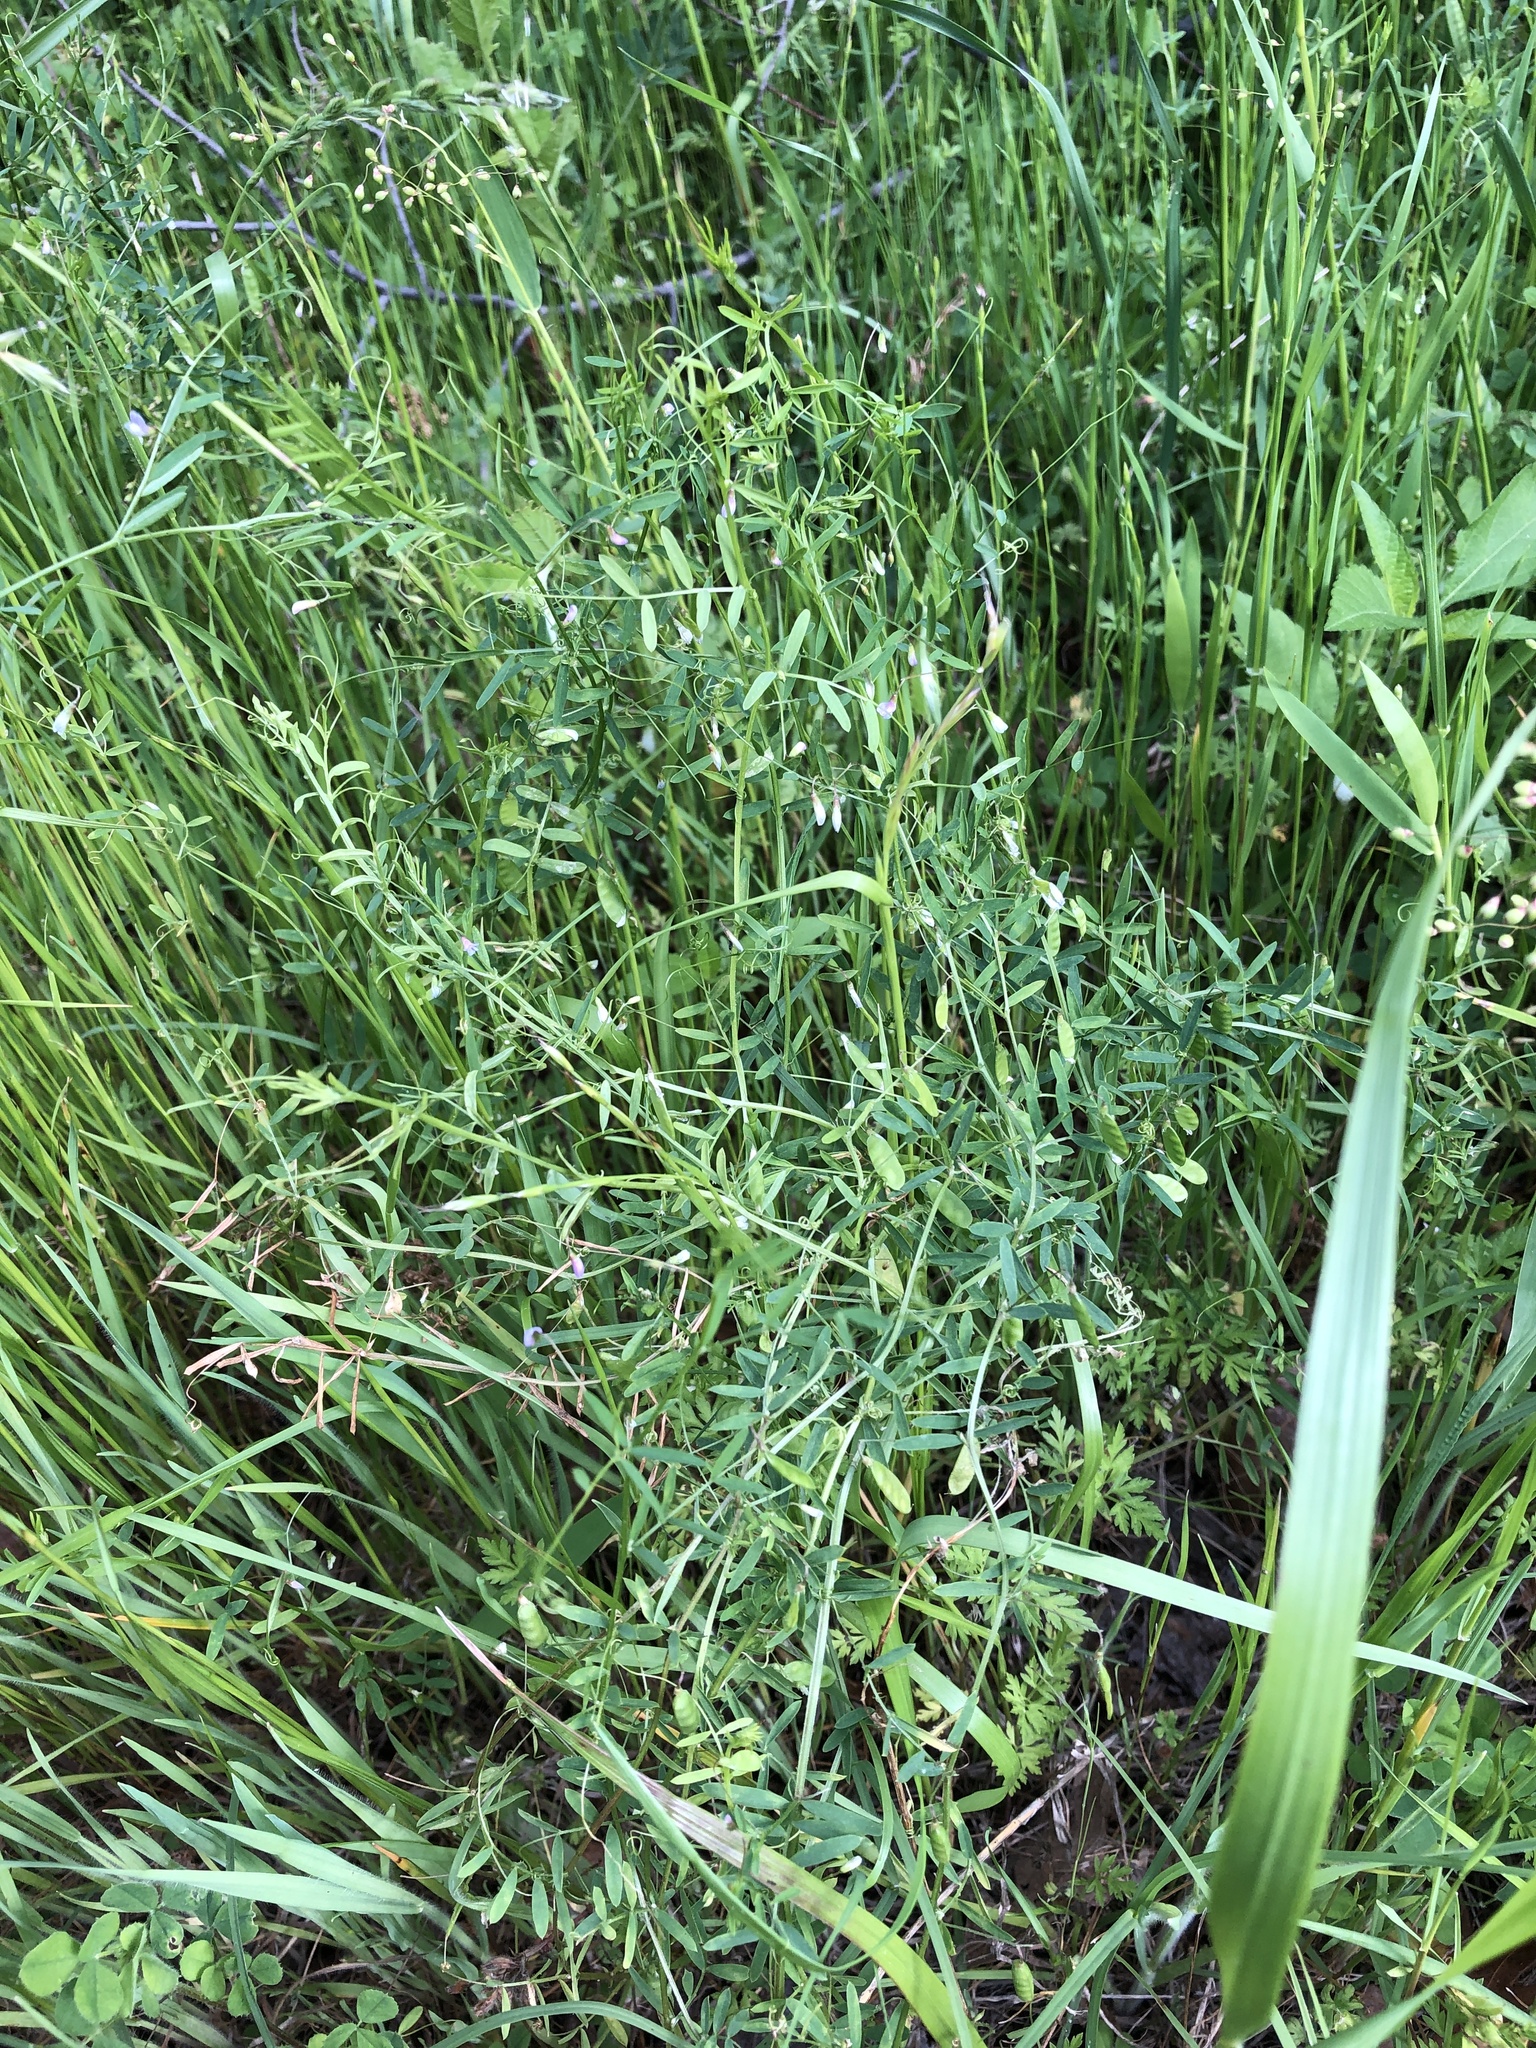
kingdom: Plantae
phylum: Tracheophyta
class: Magnoliopsida
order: Fabales
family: Fabaceae
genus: Vicia
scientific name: Vicia tetrasperma
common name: Smooth tare
